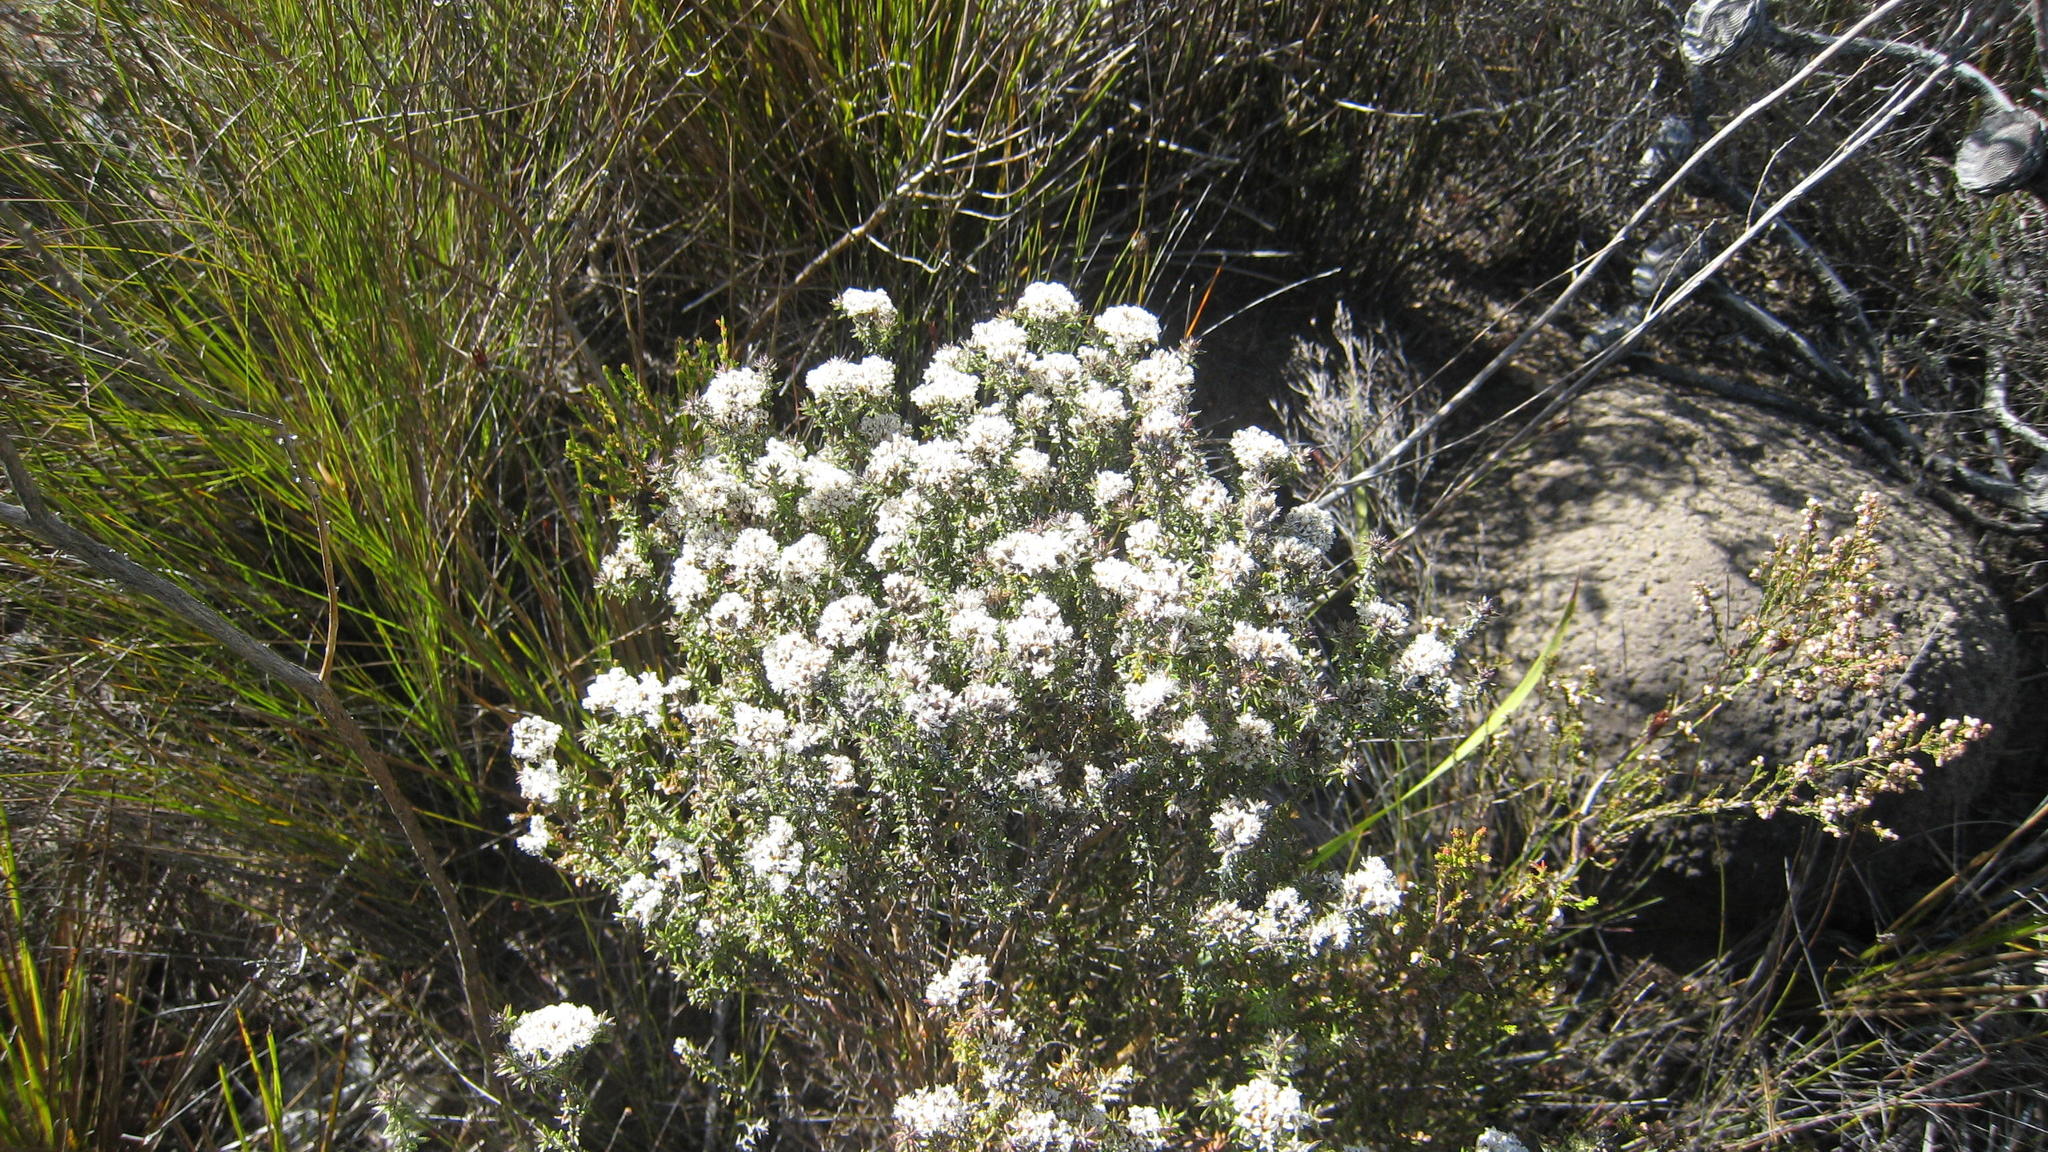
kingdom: Plantae
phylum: Tracheophyta
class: Magnoliopsida
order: Asterales
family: Asteraceae
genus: Metalasia
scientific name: Metalasia densa
